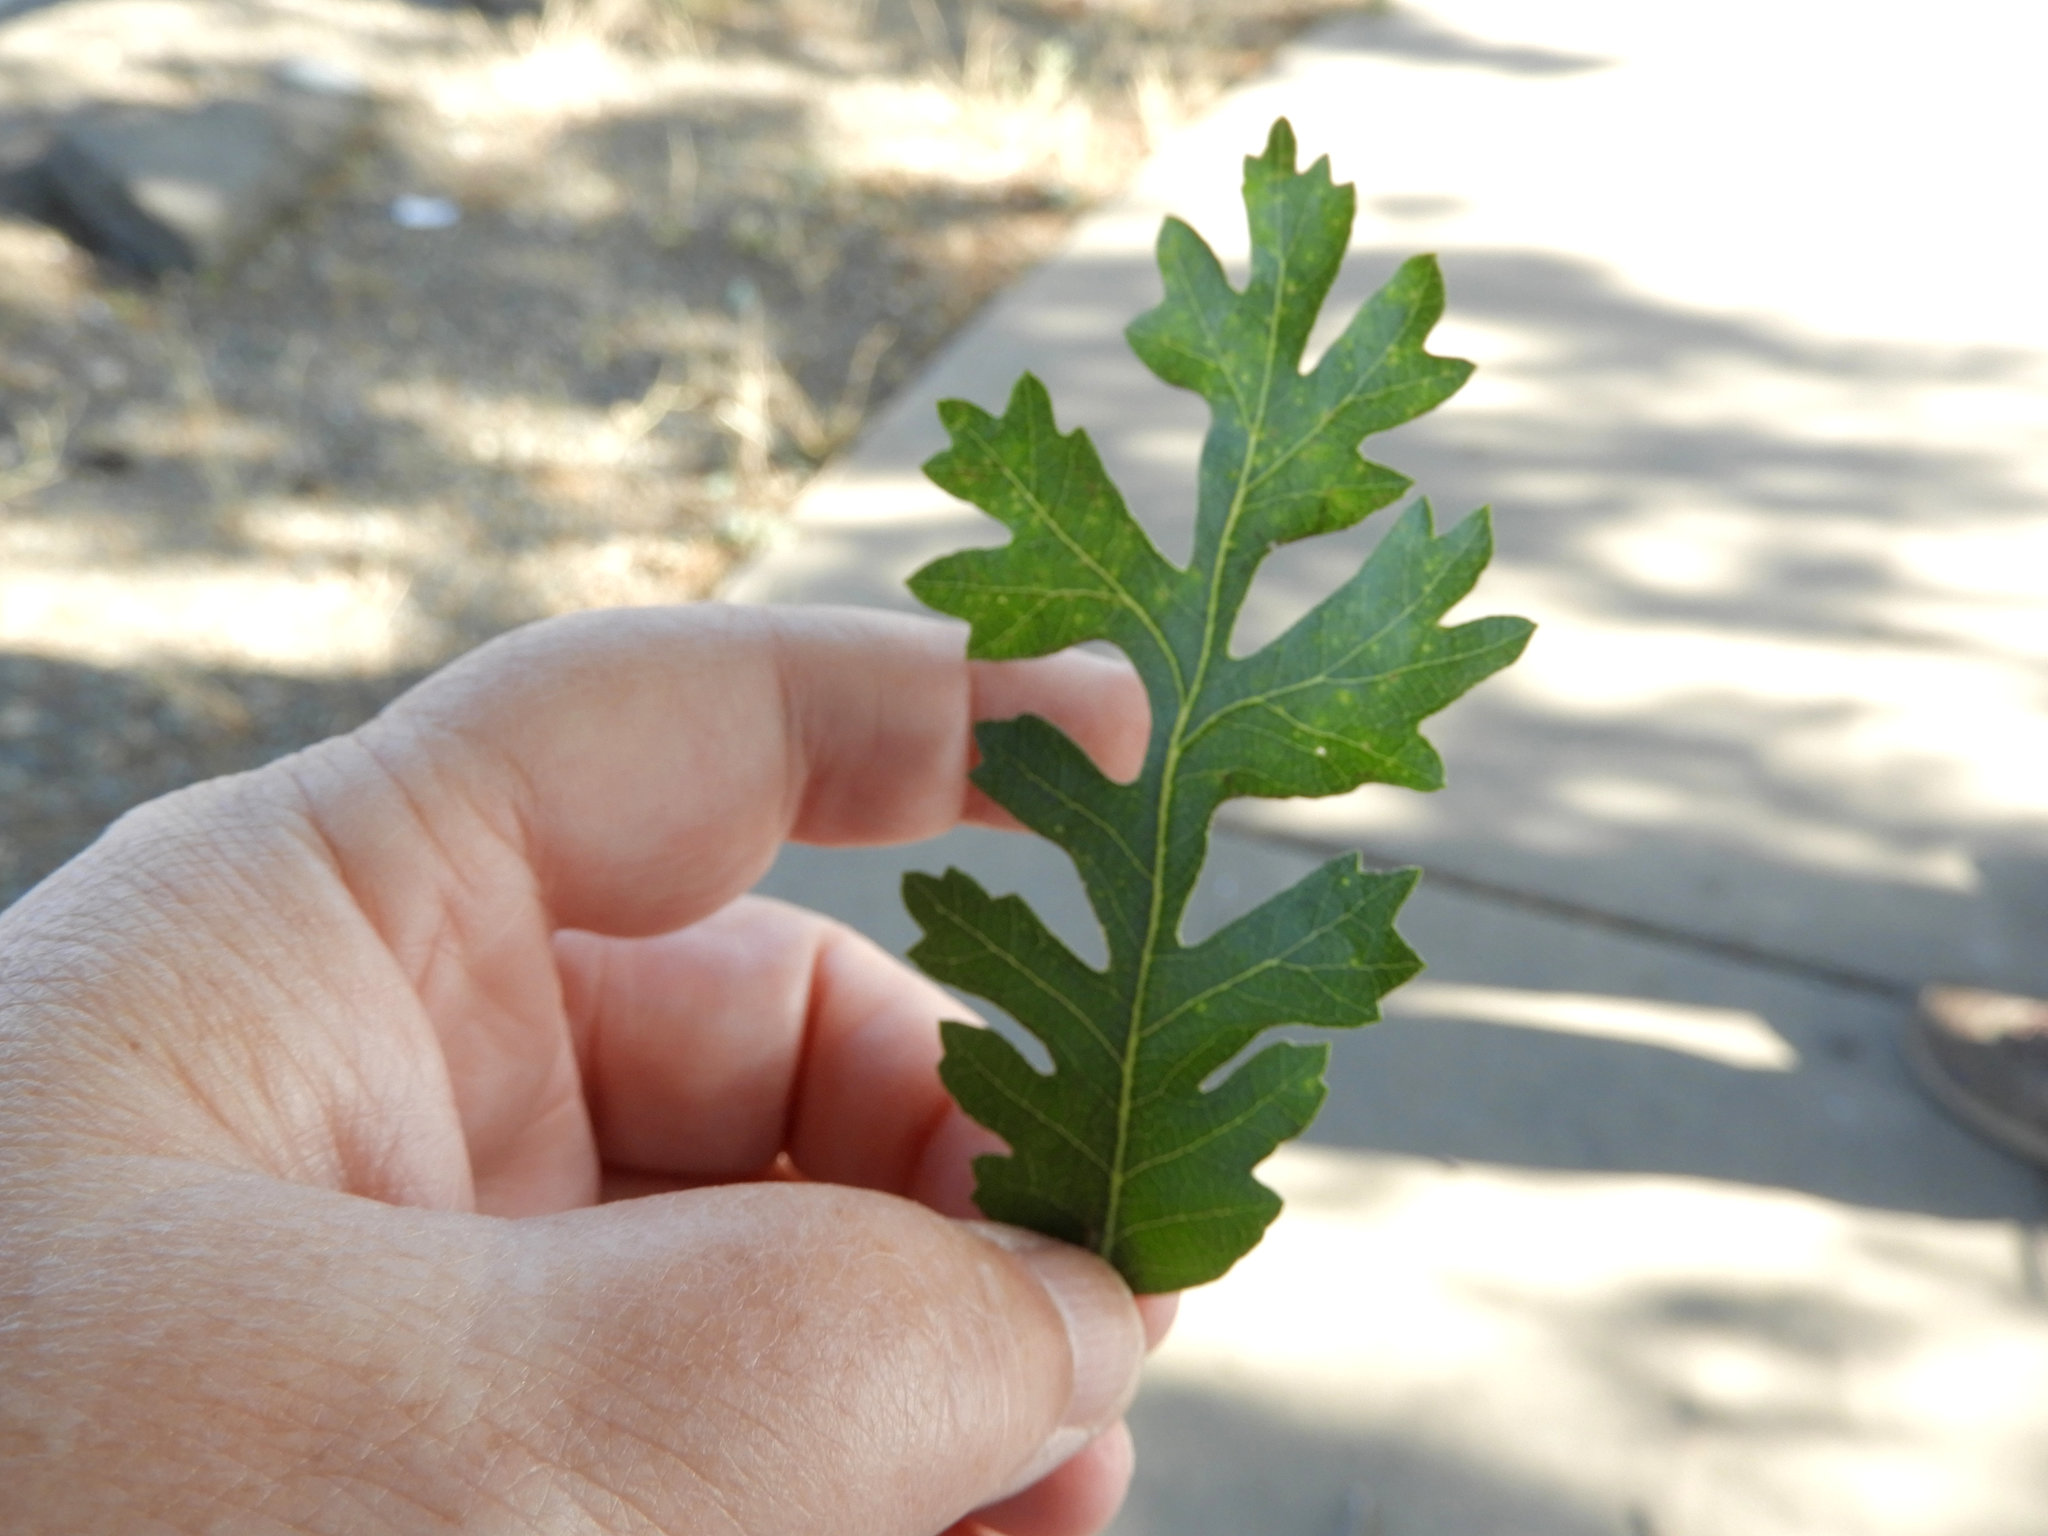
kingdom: Plantae
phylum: Tracheophyta
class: Magnoliopsida
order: Fagales
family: Fagaceae
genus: Quercus
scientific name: Quercus lobata
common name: Valley oak
